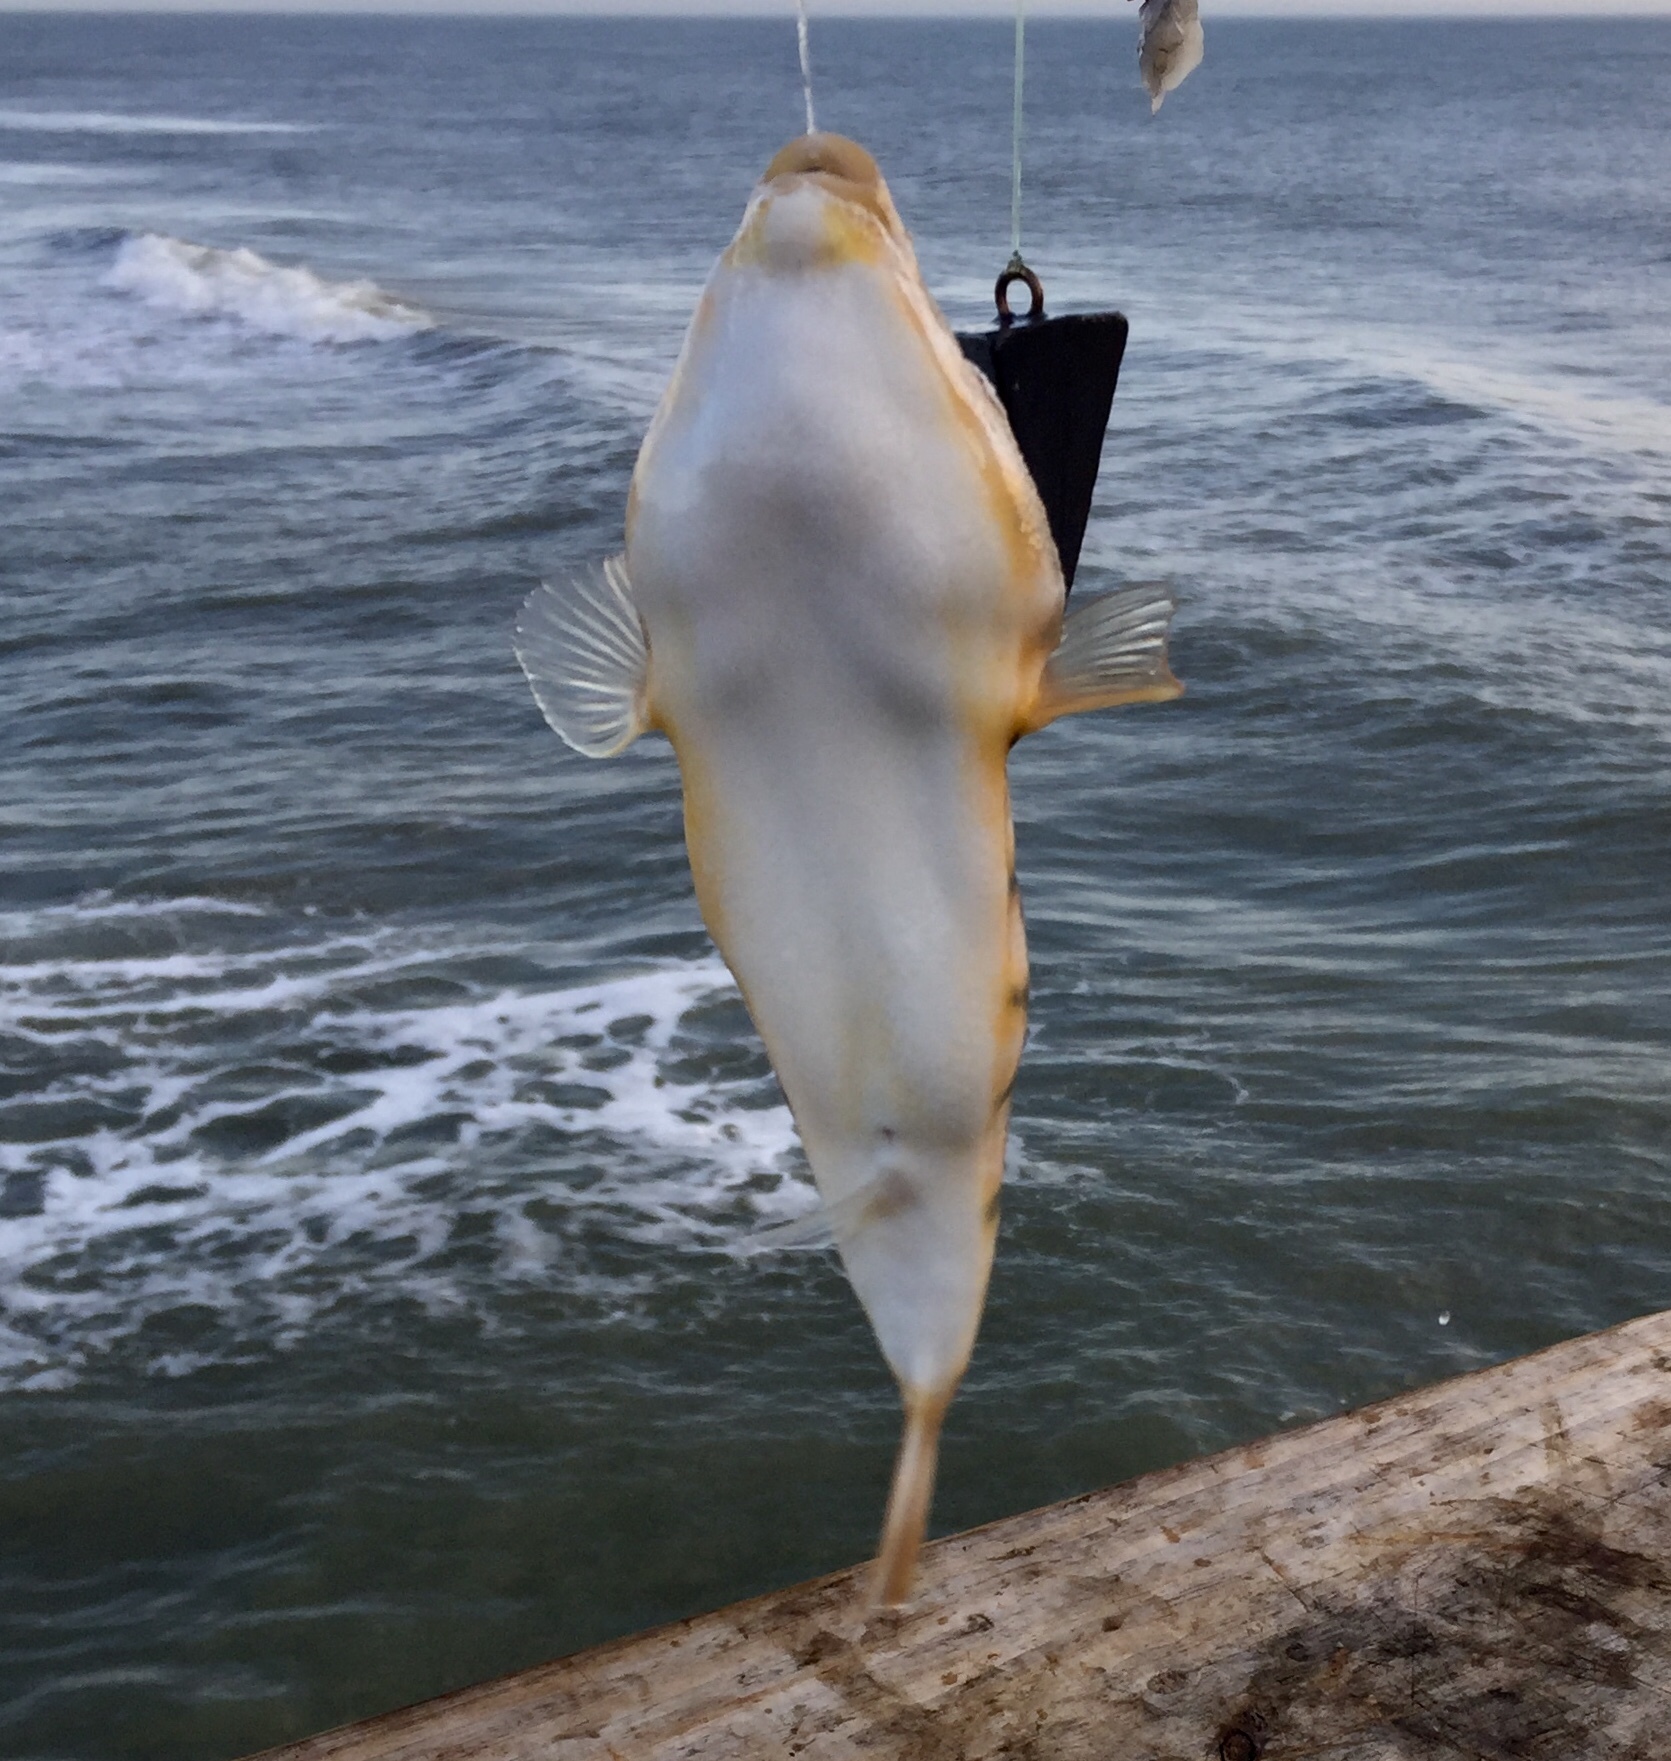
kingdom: Animalia
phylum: Chordata
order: Tetraodontiformes
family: Tetraodontidae
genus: Sphoeroides
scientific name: Sphoeroides maculatus
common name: Northern puffer
